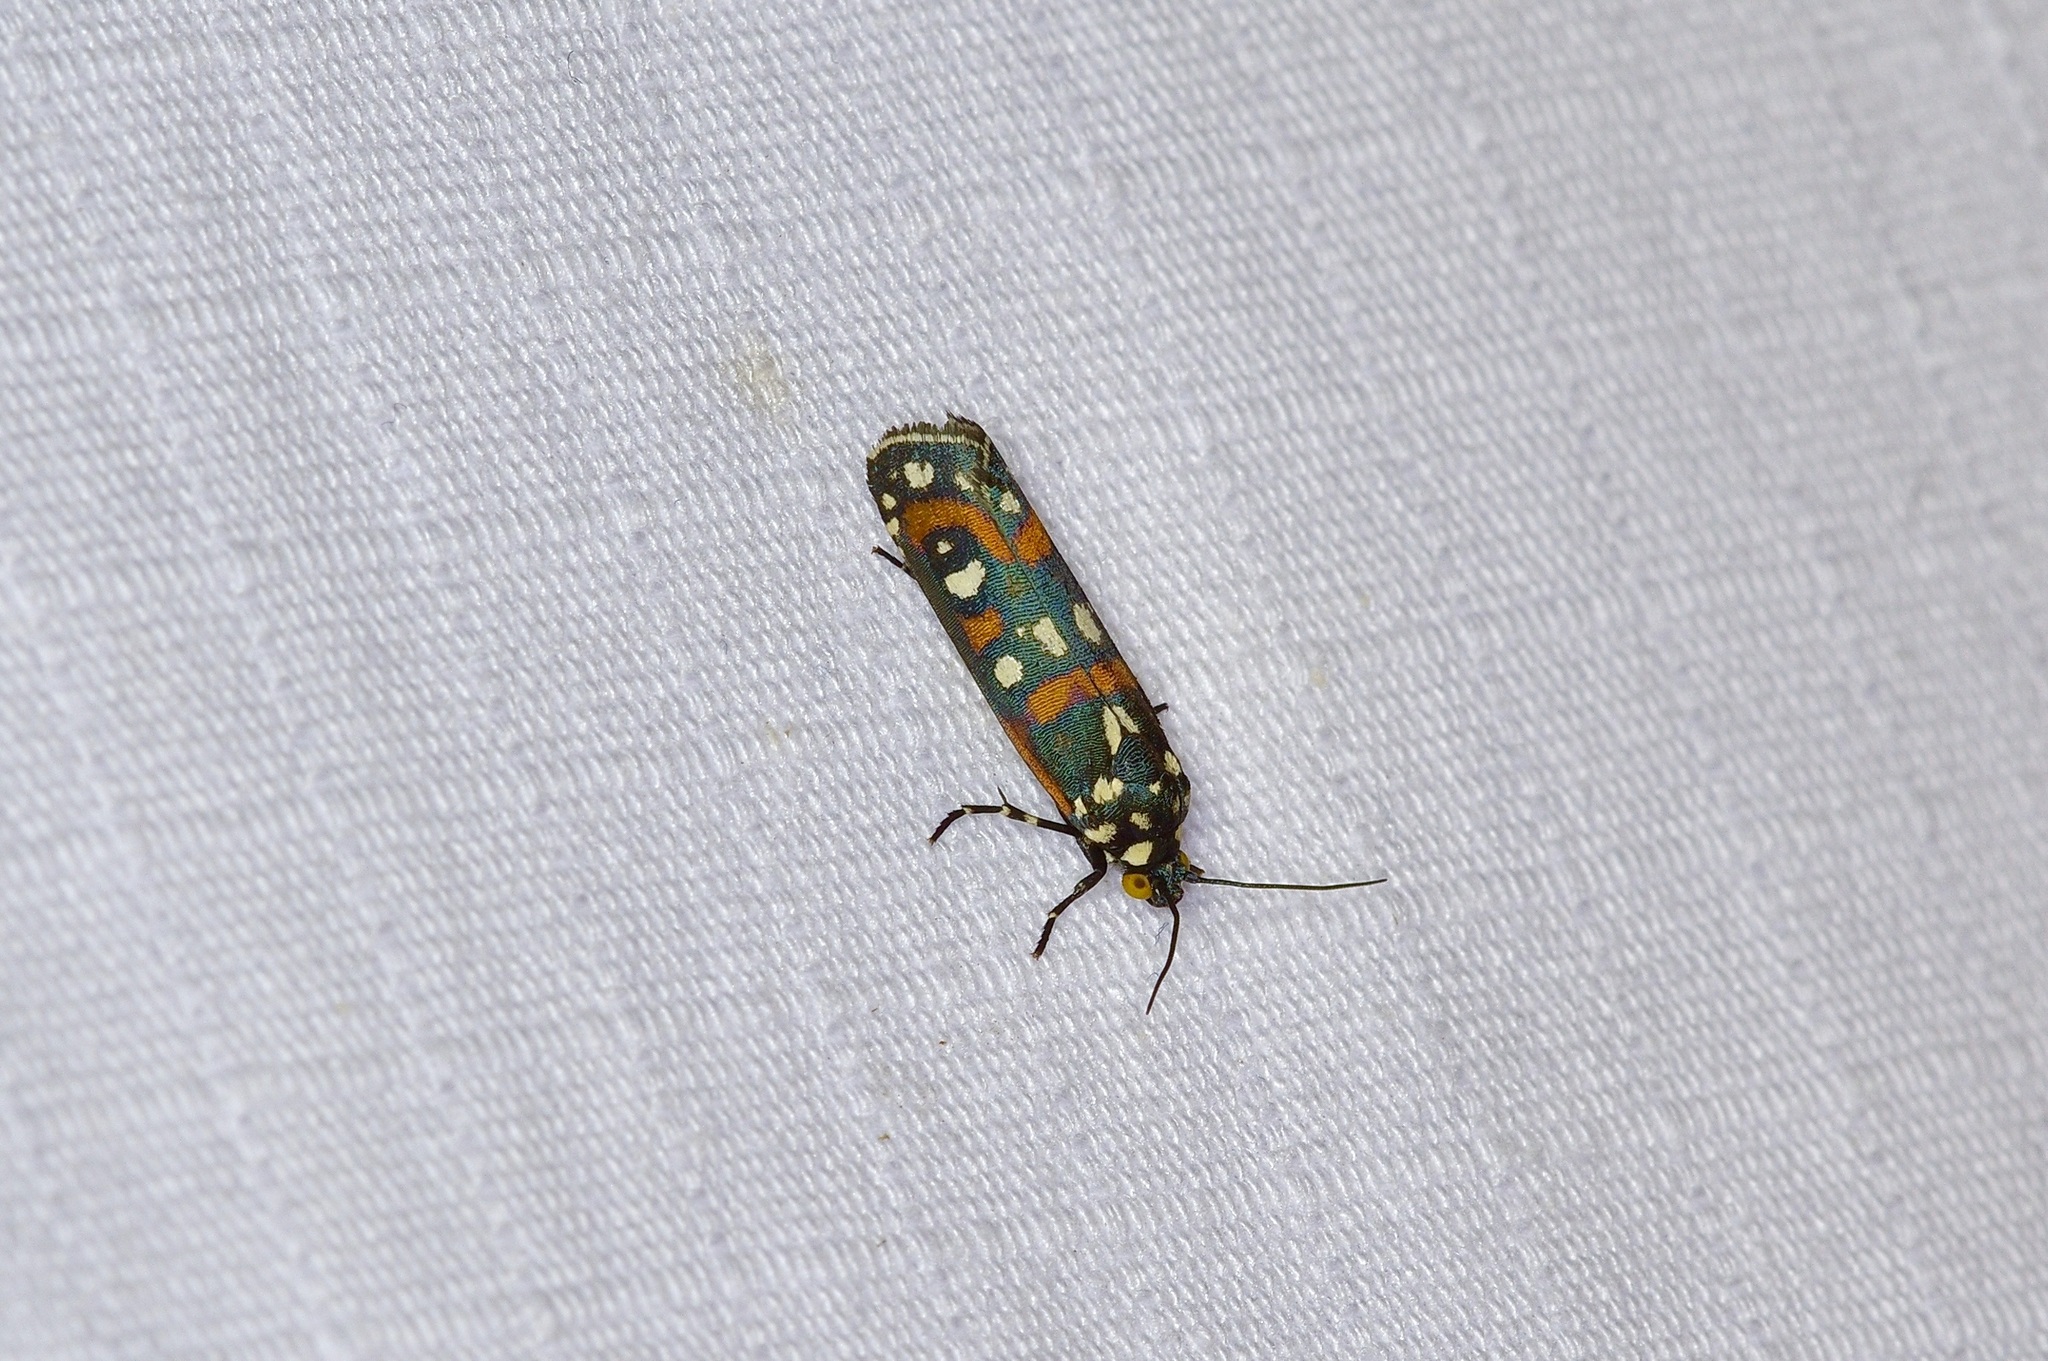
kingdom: Animalia
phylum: Arthropoda
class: Insecta
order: Lepidoptera
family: Noctuidae
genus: Cydosia
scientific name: Cydosia aurivitta
